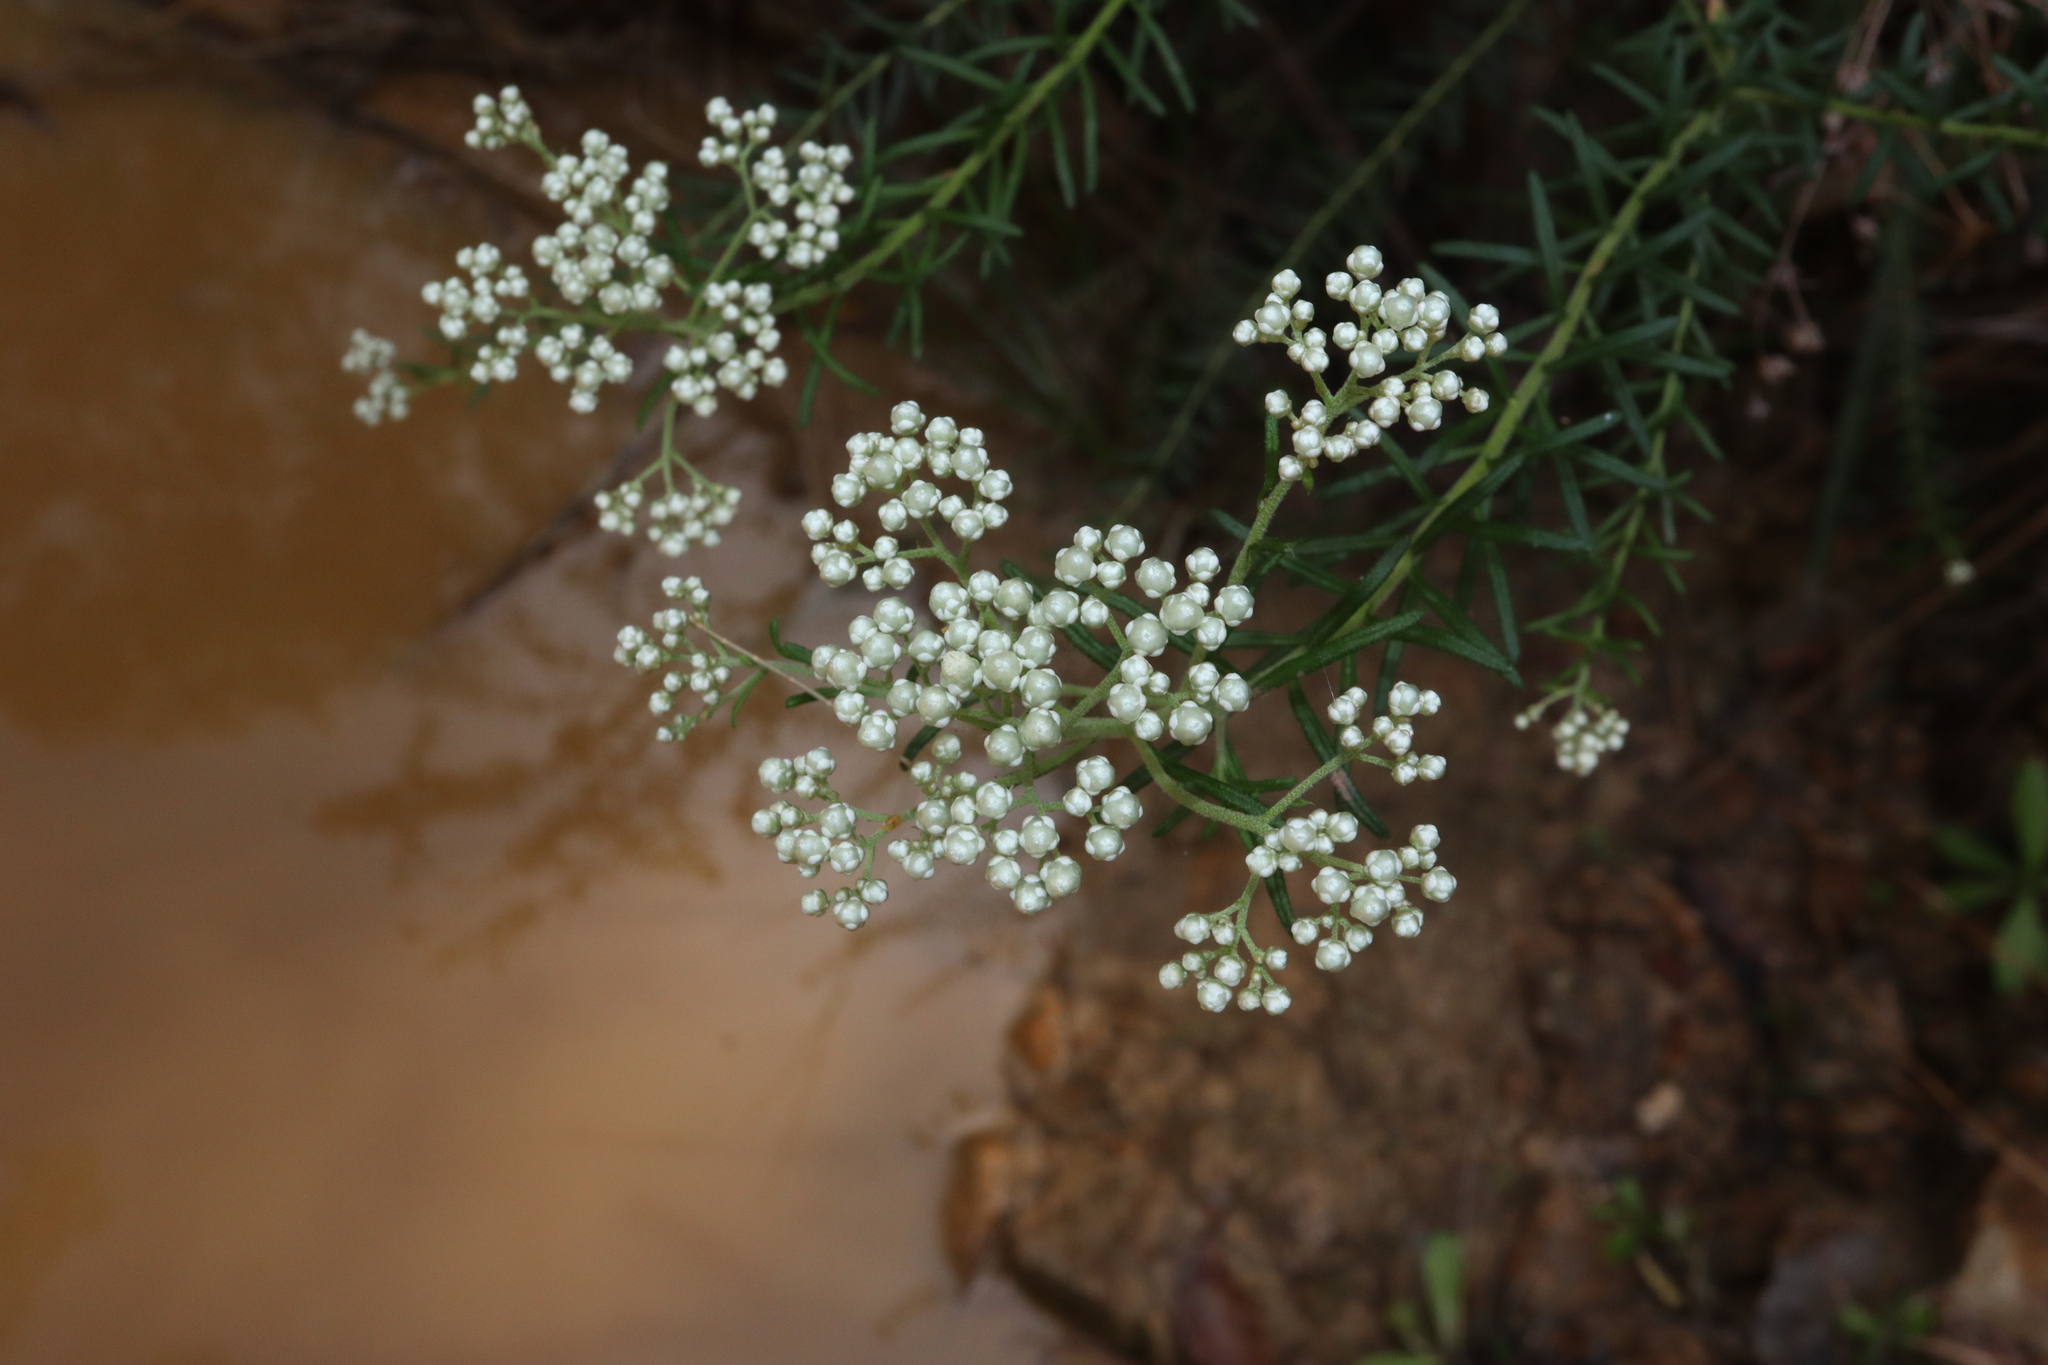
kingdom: Plantae
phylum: Tracheophyta
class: Magnoliopsida
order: Asterales
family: Asteraceae
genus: Ozothamnus
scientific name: Ozothamnus diosmifolius
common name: White-dogwood
